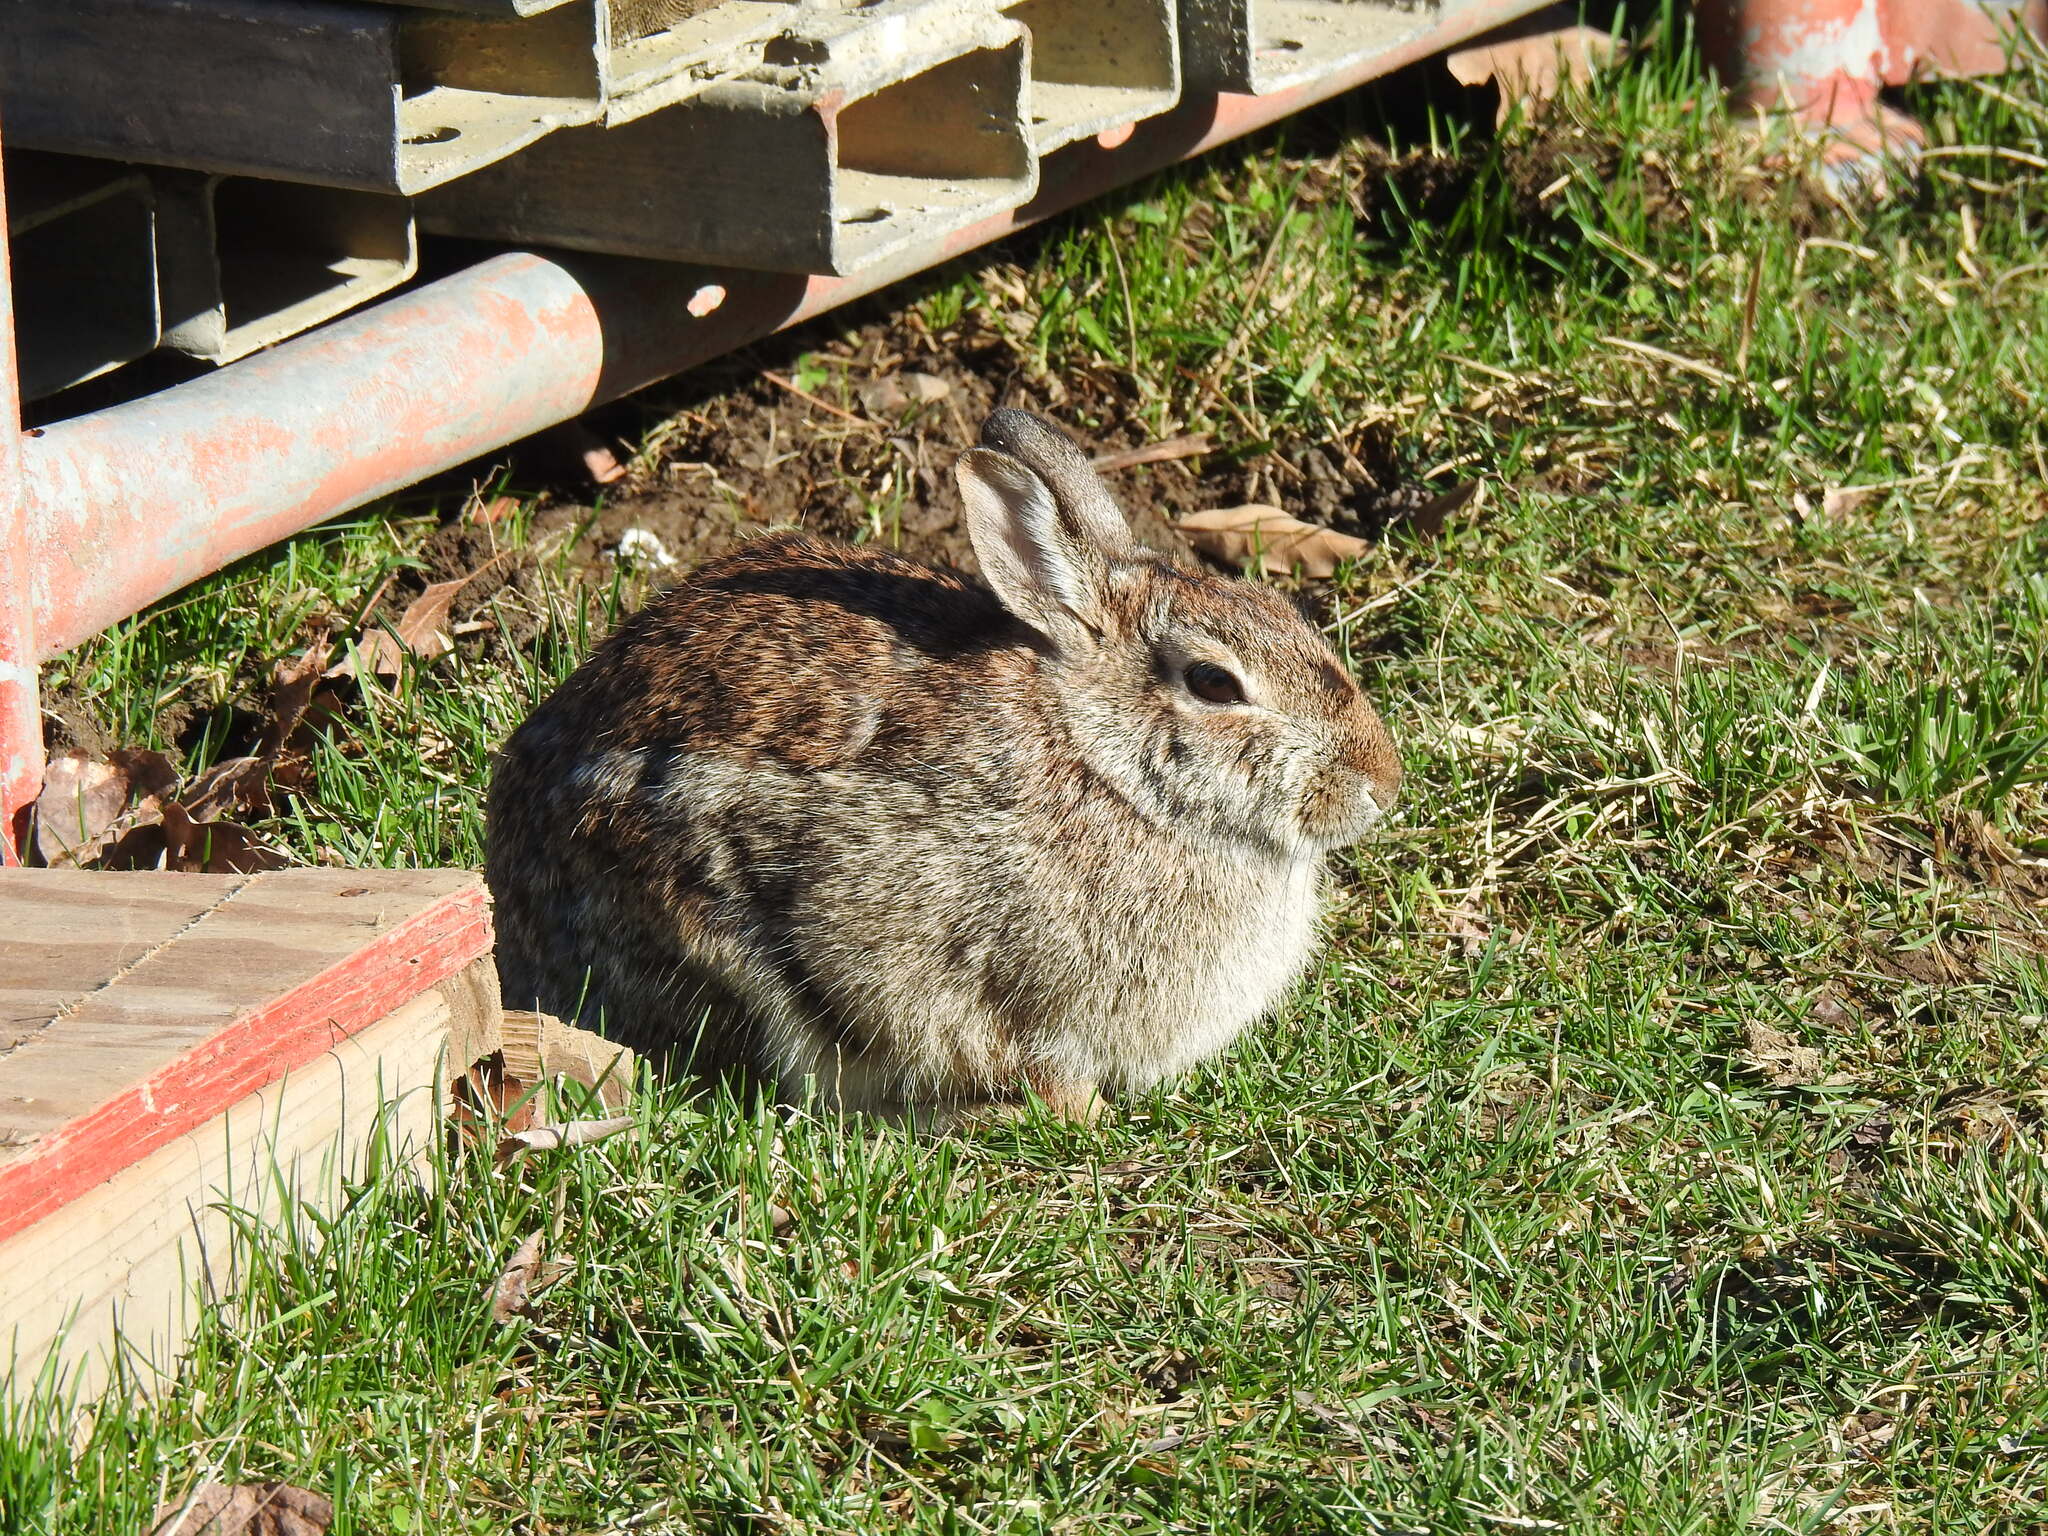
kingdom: Animalia
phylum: Chordata
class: Mammalia
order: Lagomorpha
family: Leporidae
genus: Sylvilagus
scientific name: Sylvilagus floridanus
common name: Eastern cottontail
